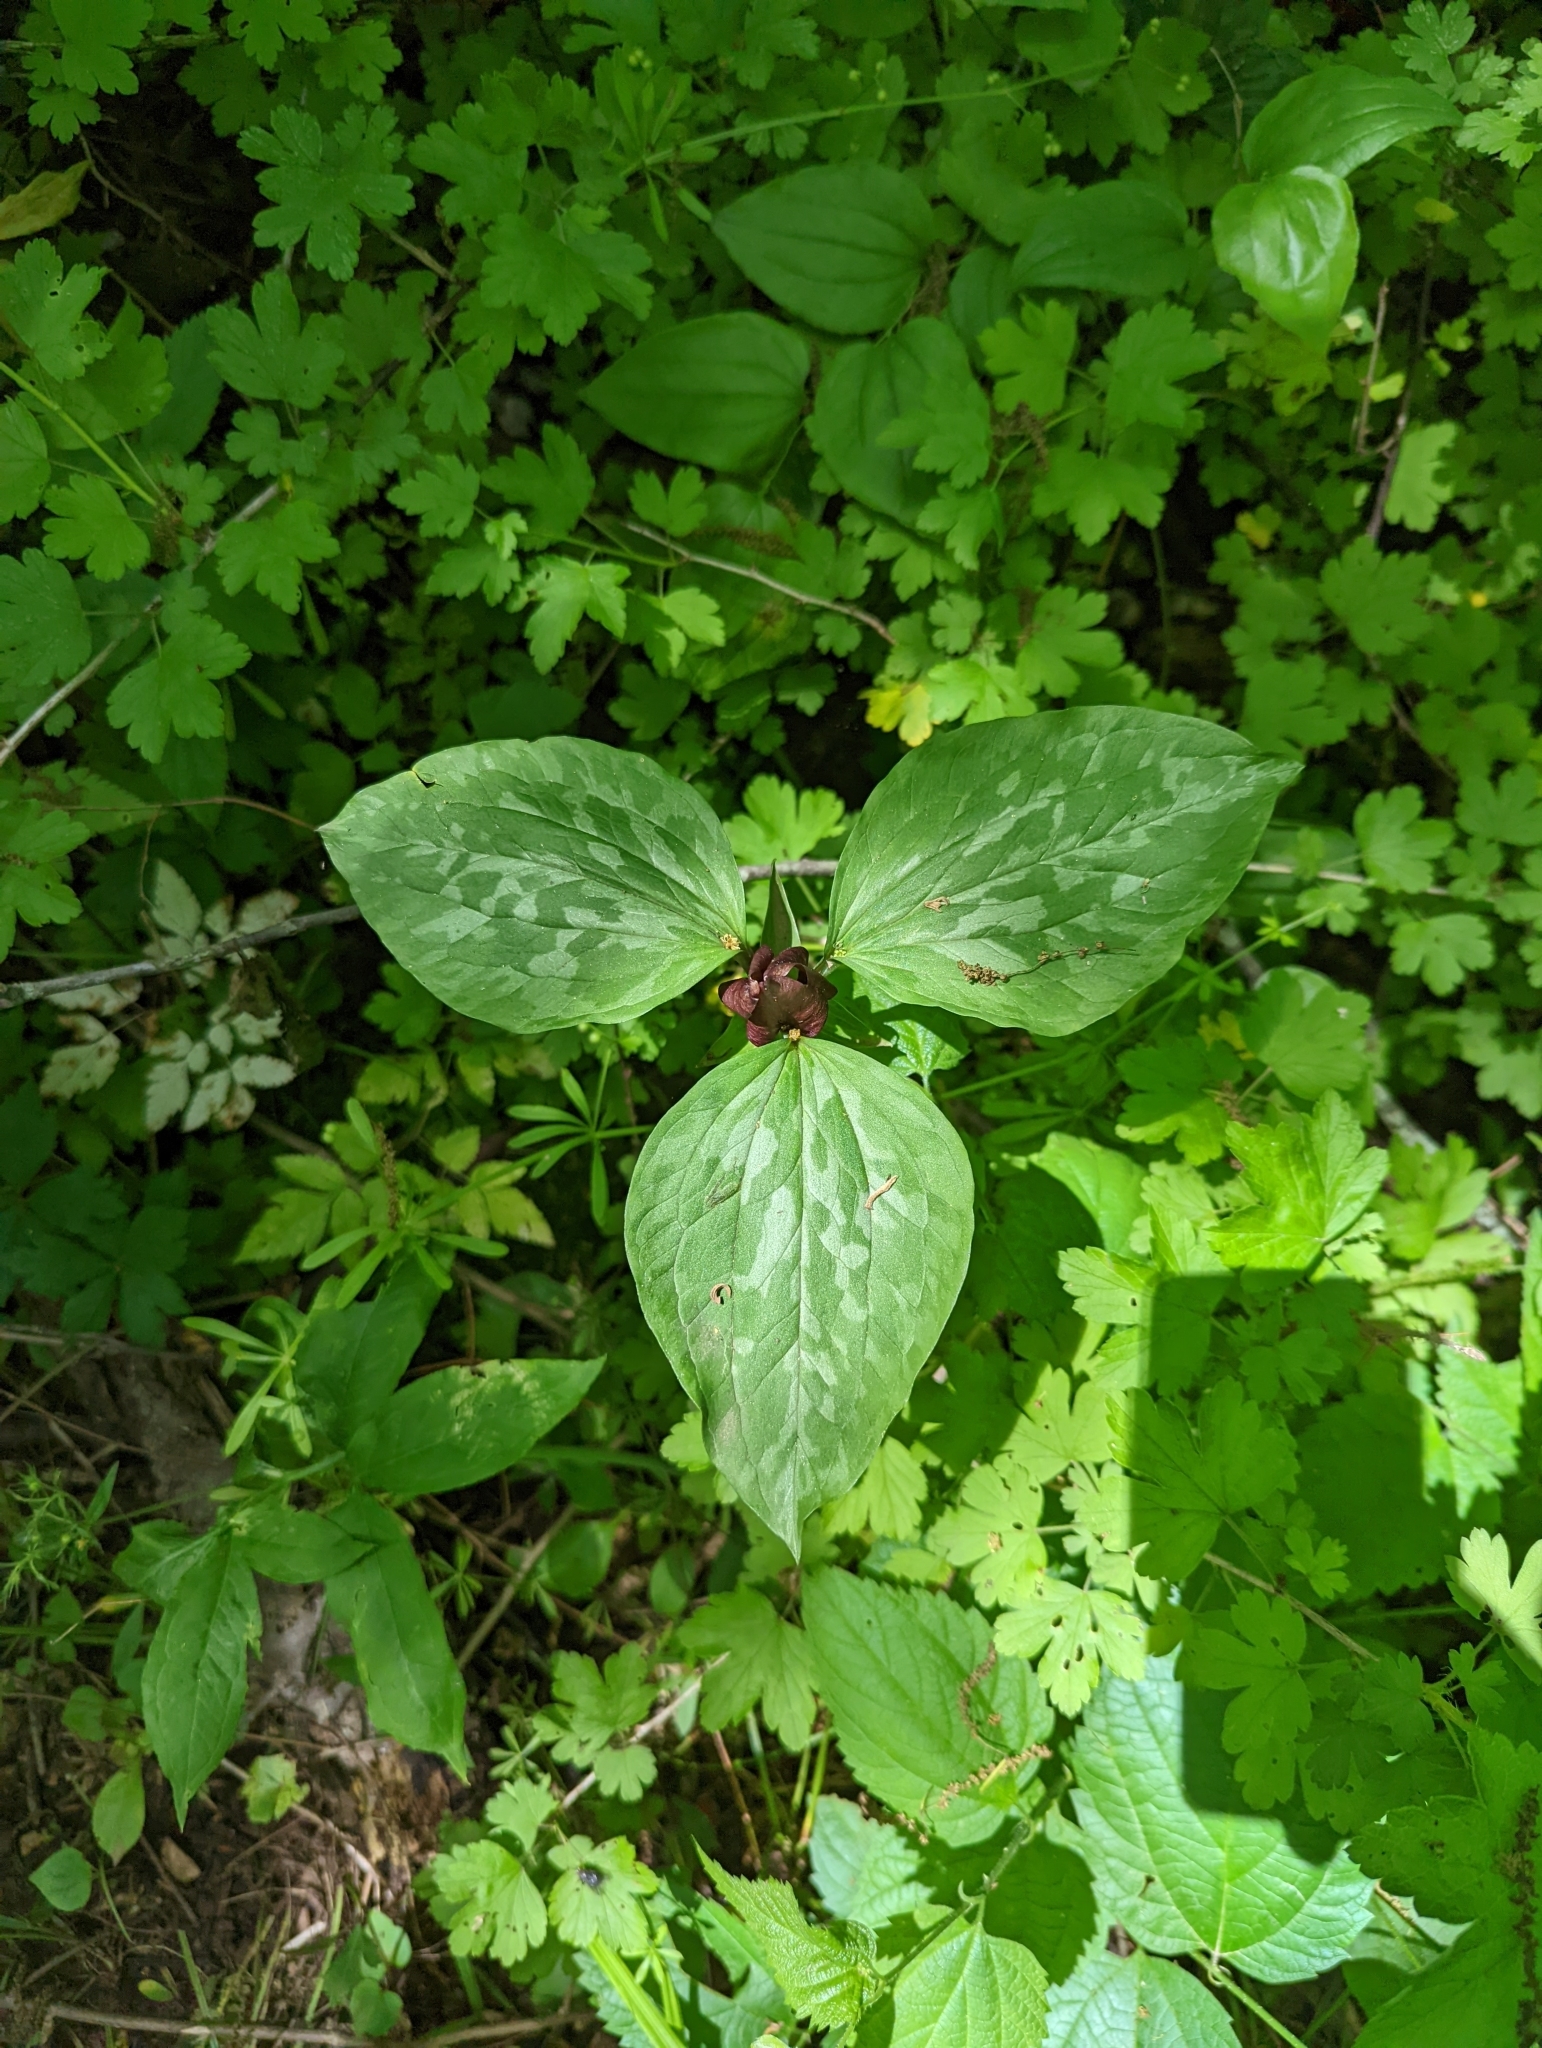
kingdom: Plantae
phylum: Tracheophyta
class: Liliopsida
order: Liliales
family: Melanthiaceae
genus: Trillium
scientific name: Trillium recurvatum
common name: Bloody butcher
